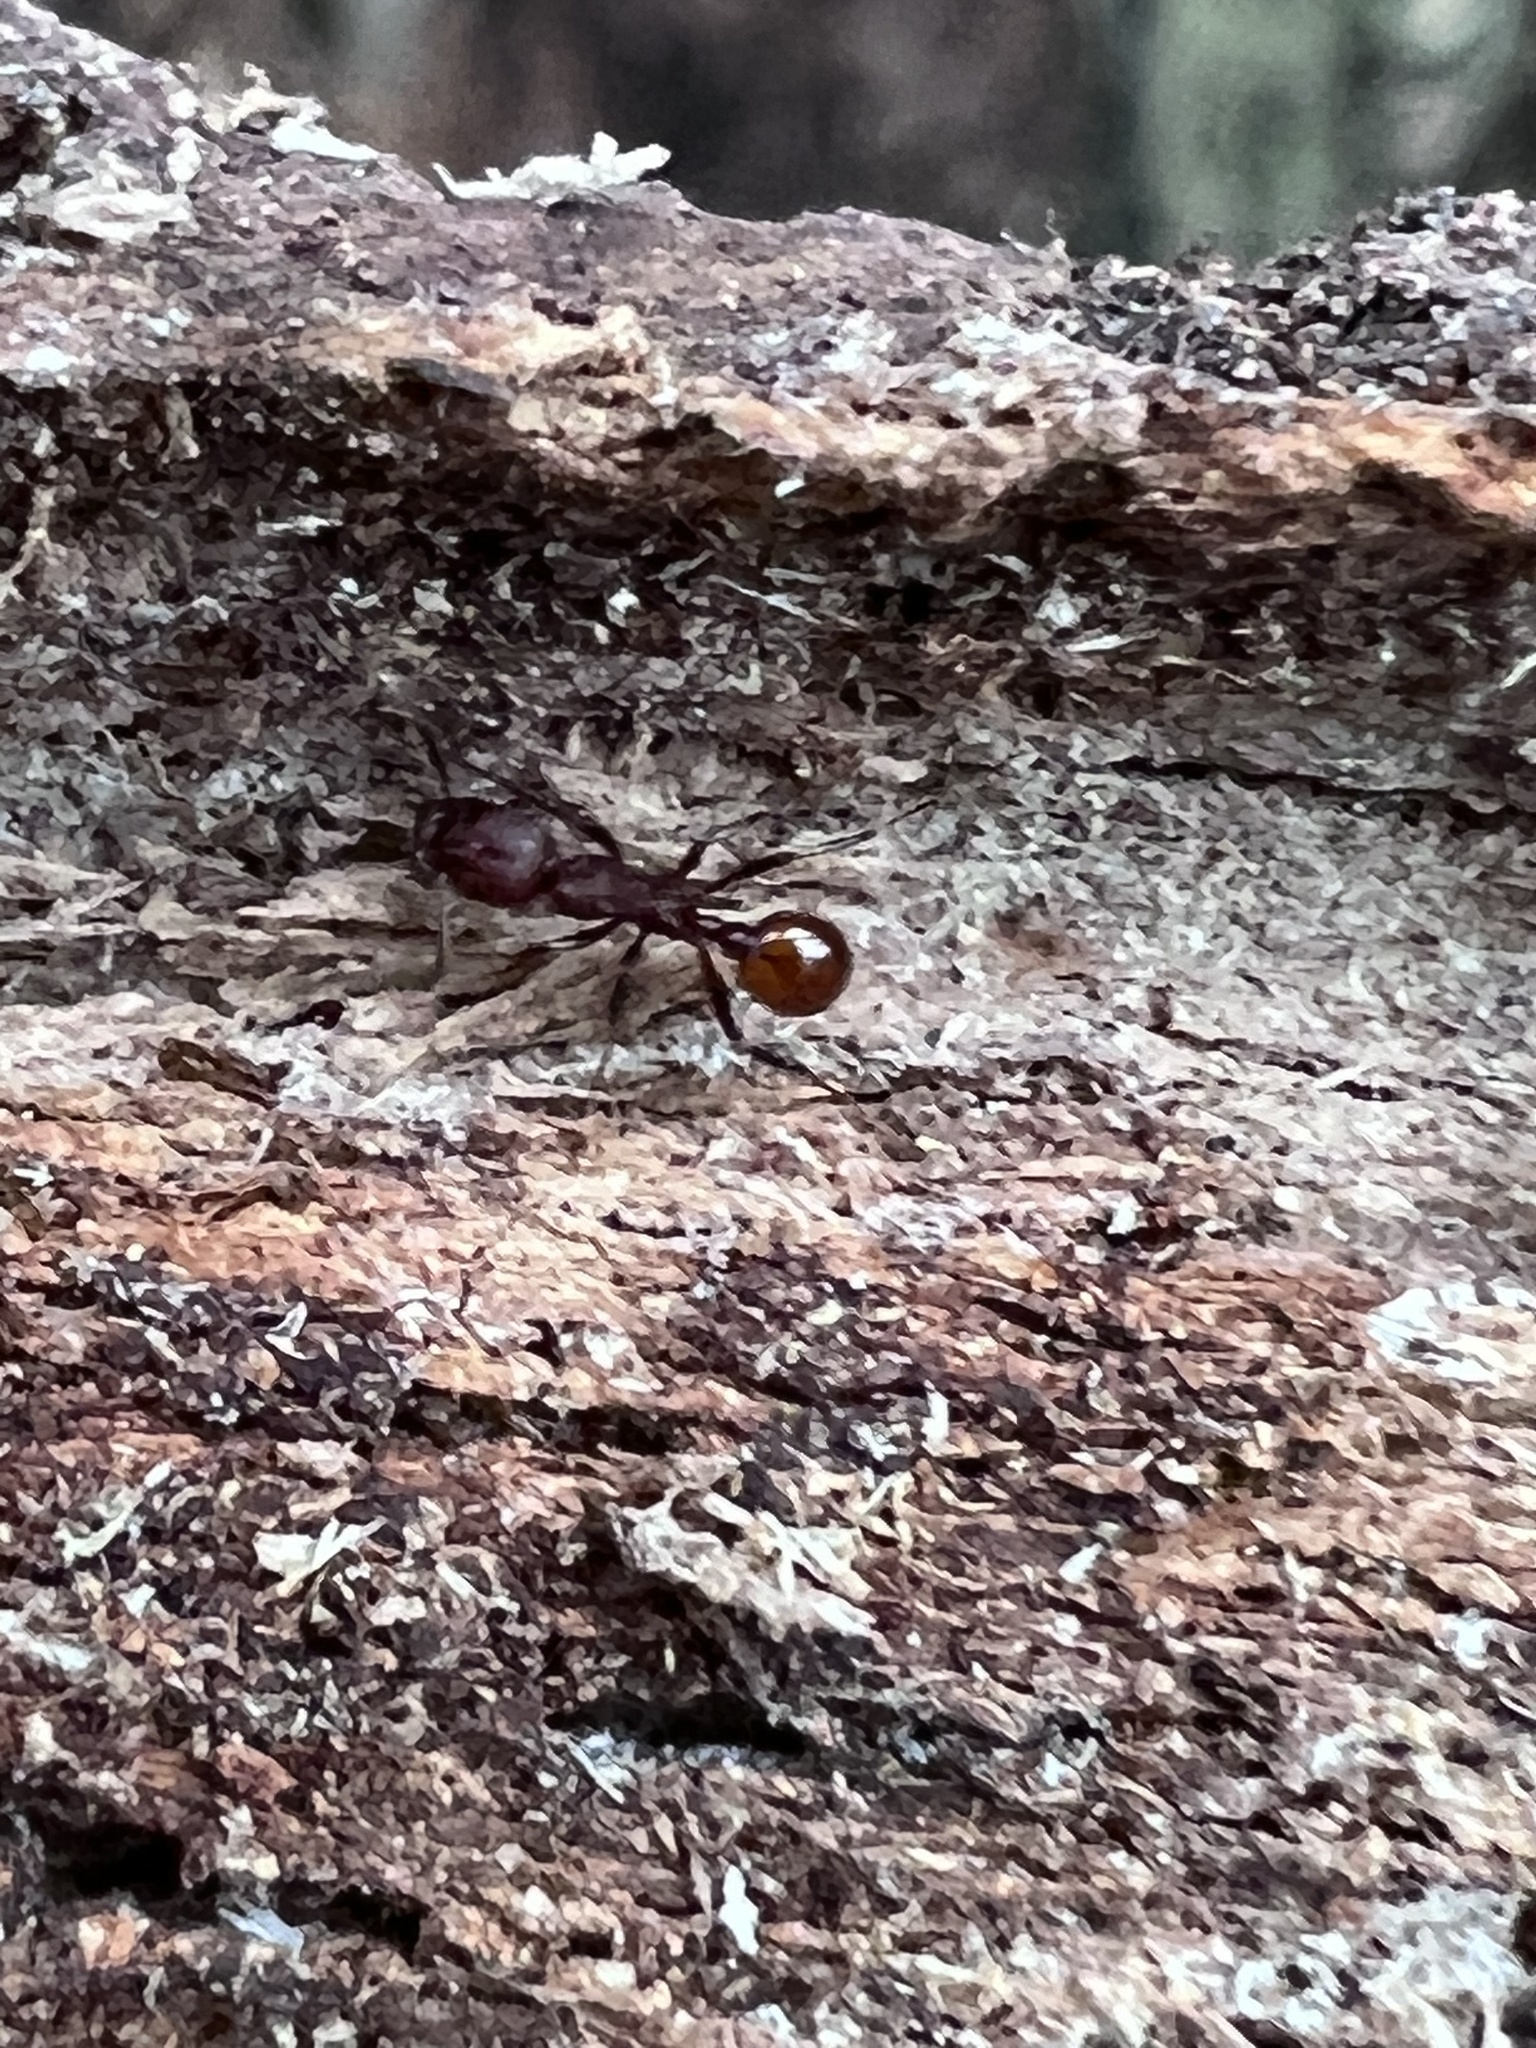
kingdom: Animalia
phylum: Arthropoda
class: Insecta
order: Hymenoptera
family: Formicidae
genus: Aphaenogaster
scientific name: Aphaenogaster tennesseensis
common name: Tennessee thread-waisted ant
